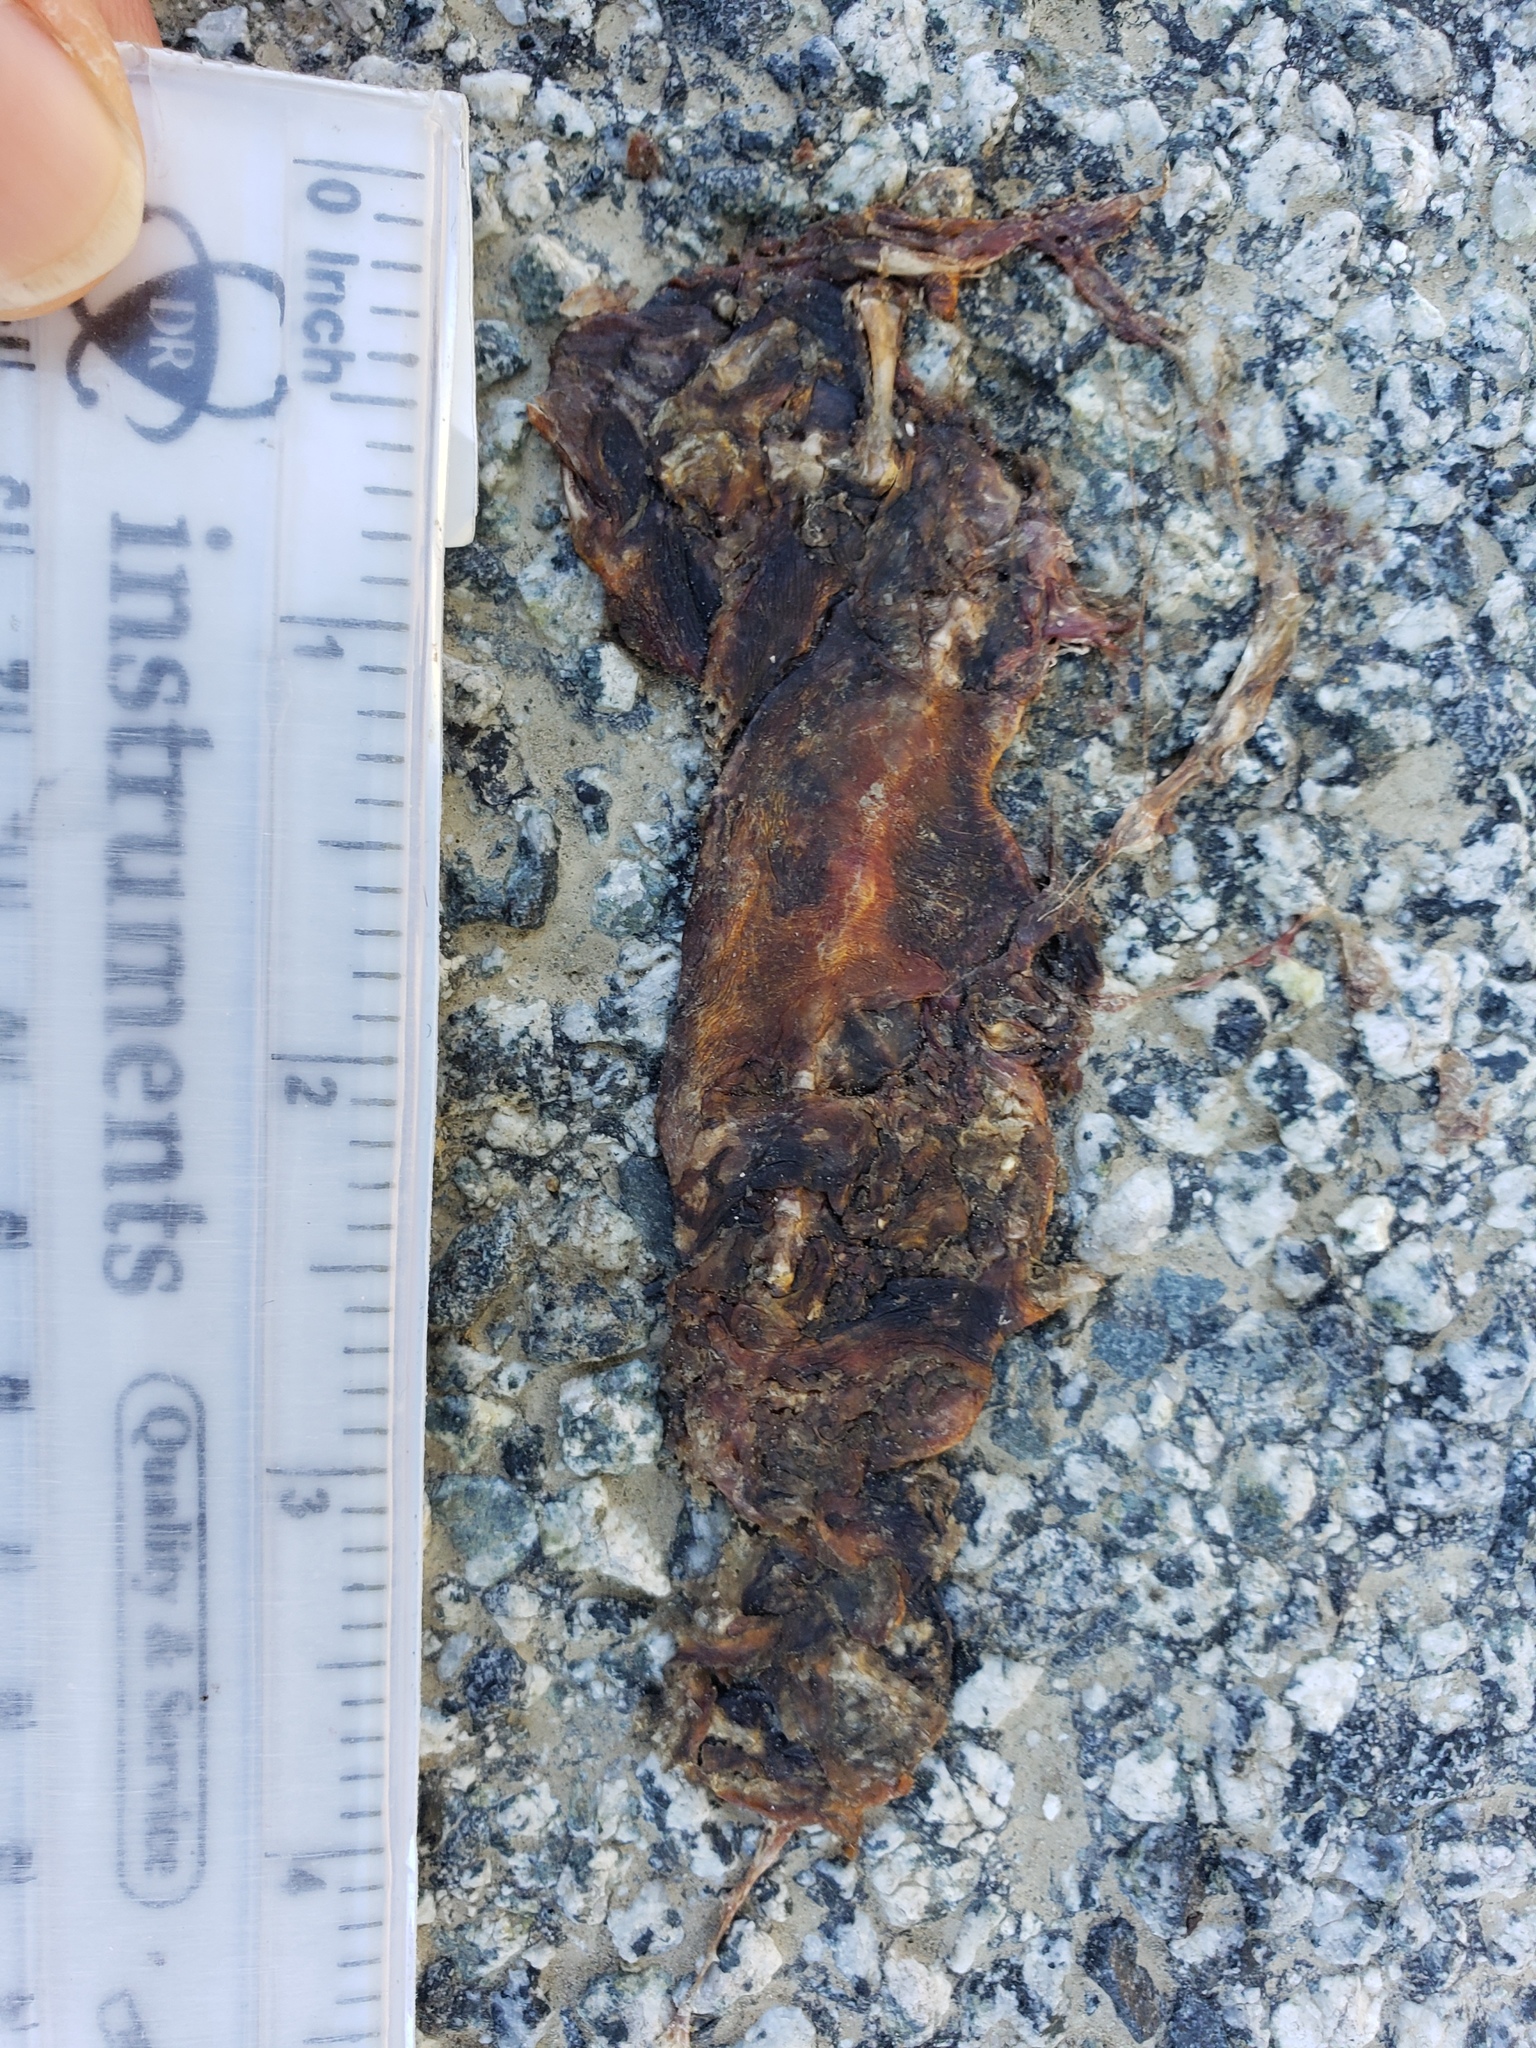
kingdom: Animalia
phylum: Chordata
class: Amphibia
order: Caudata
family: Salamandridae
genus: Taricha
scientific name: Taricha
